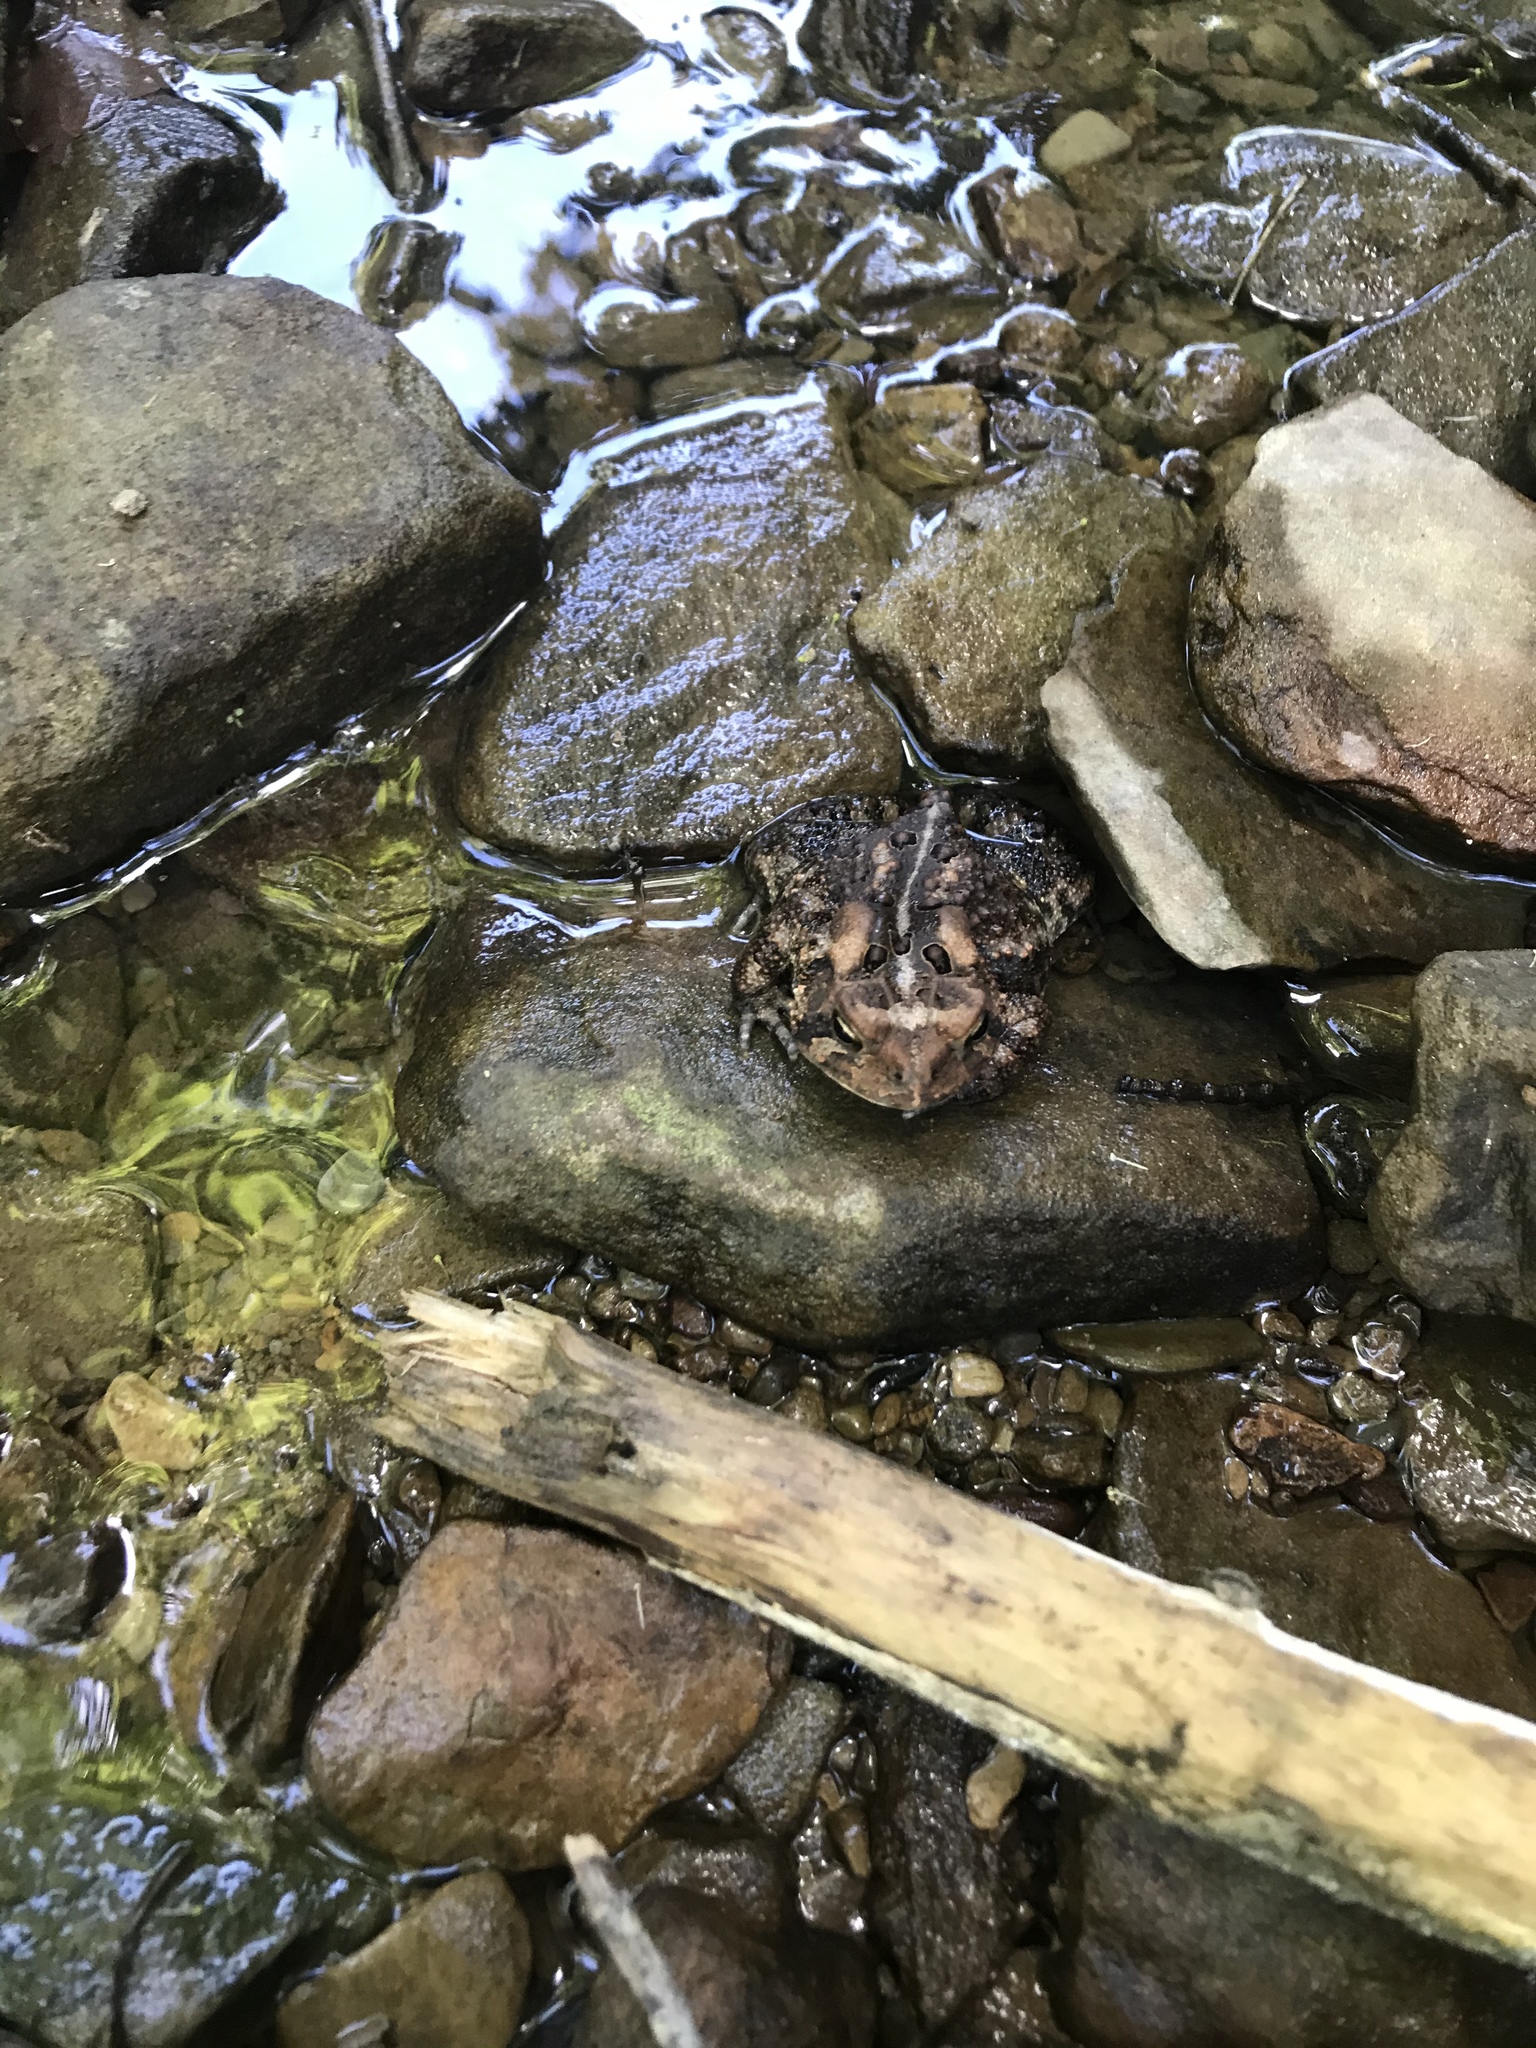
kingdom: Animalia
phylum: Chordata
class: Amphibia
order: Anura
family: Bufonidae
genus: Anaxyrus
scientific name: Anaxyrus americanus
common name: American toad
